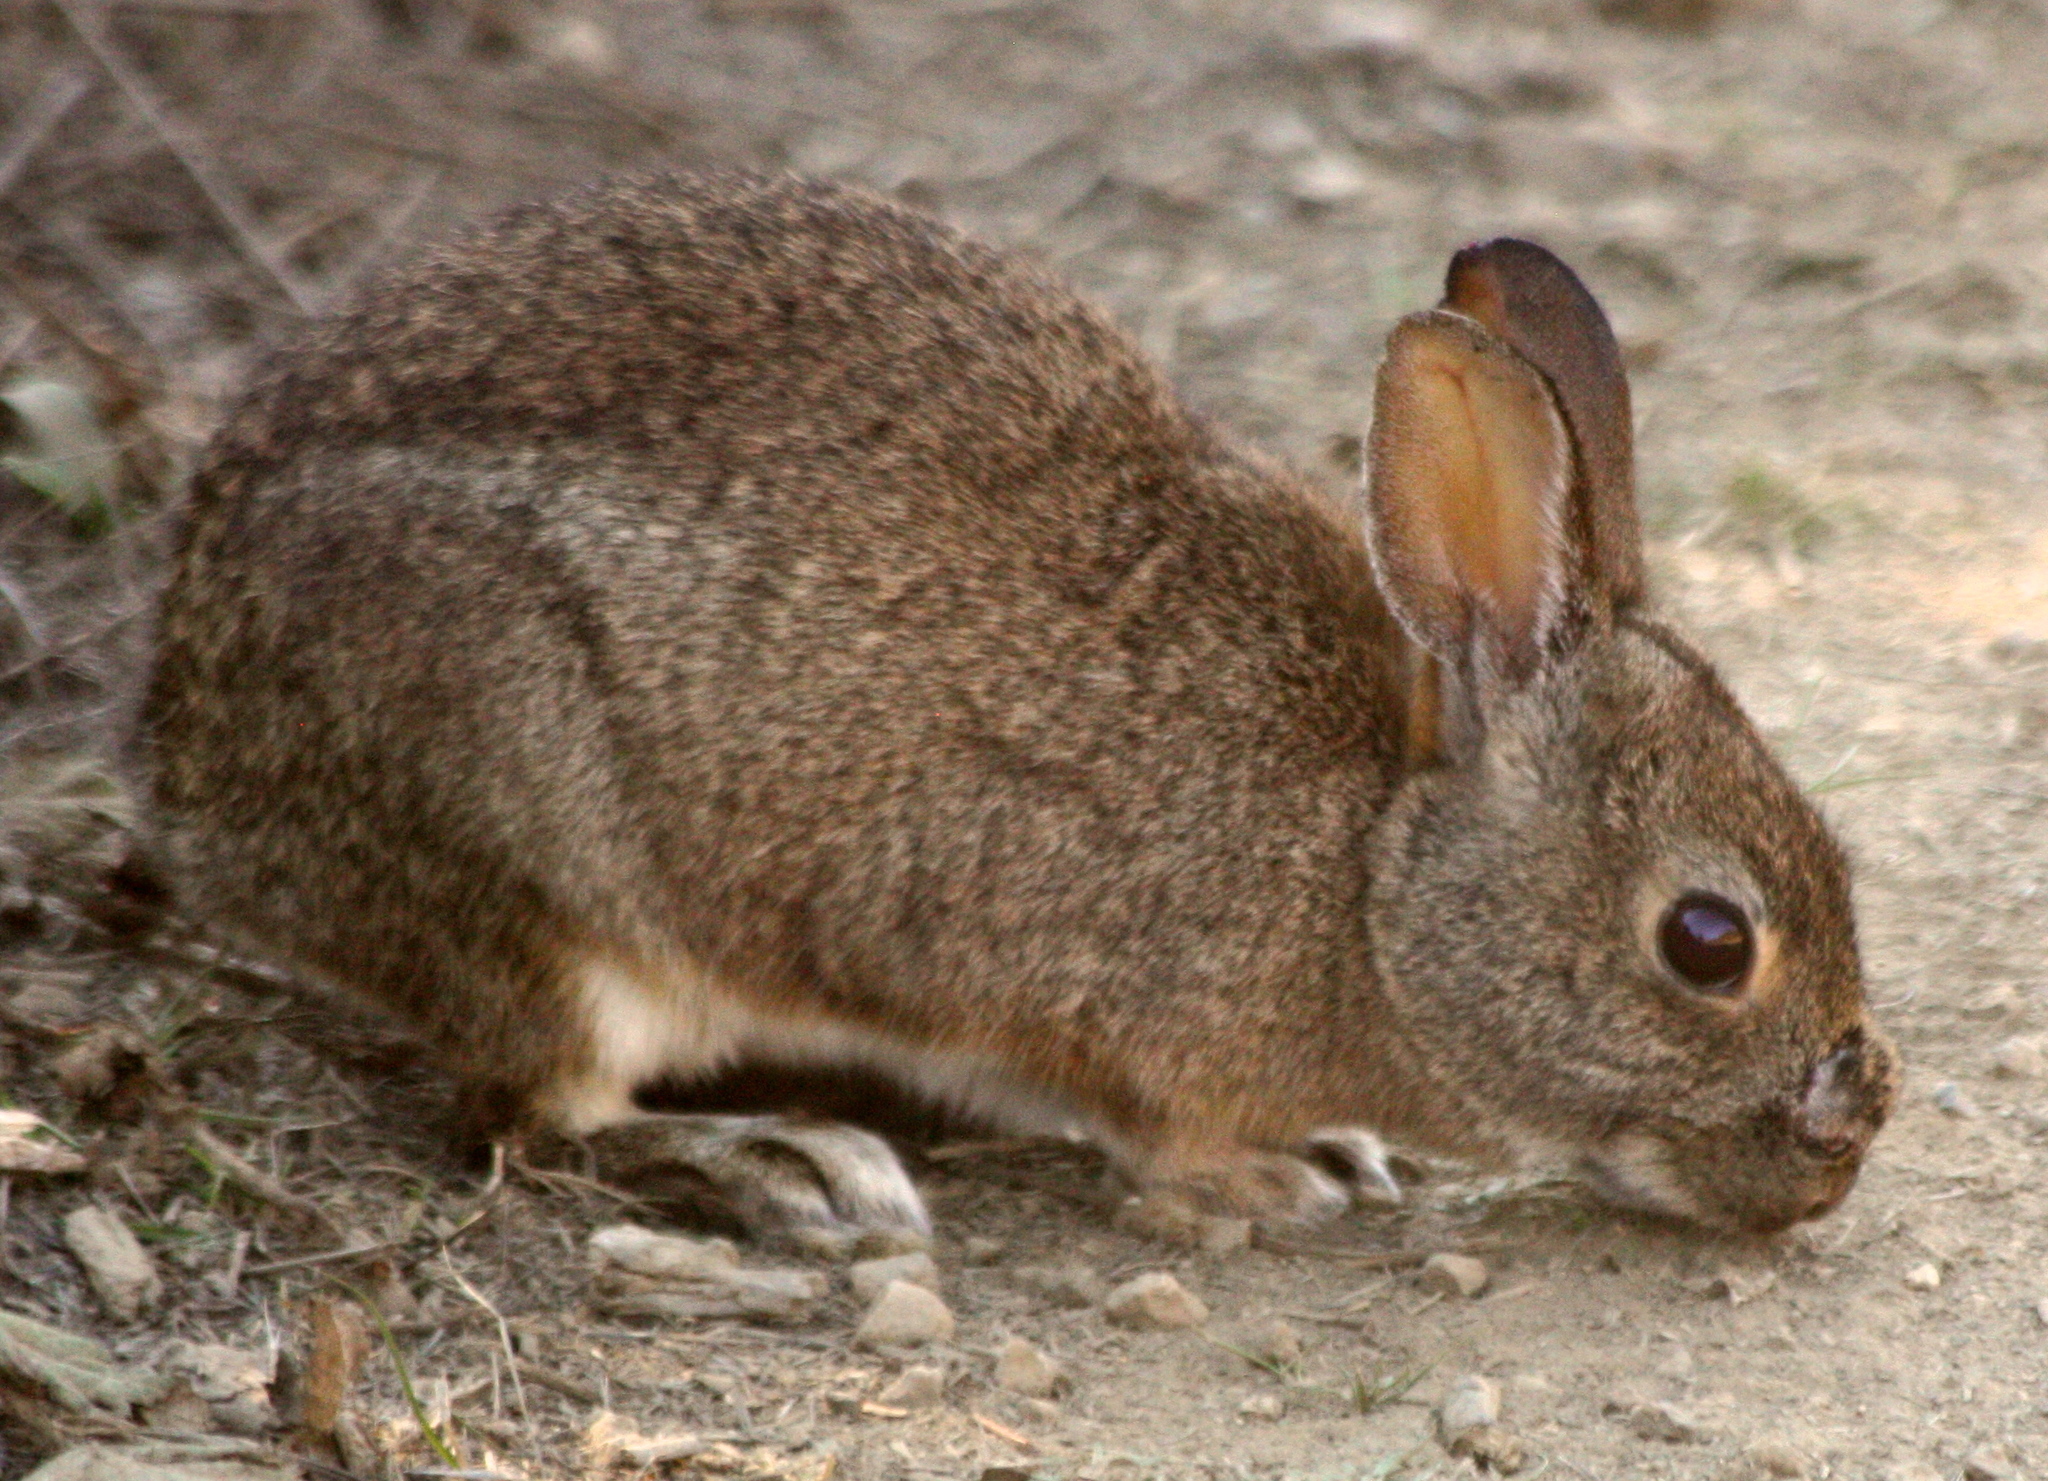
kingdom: Animalia
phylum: Chordata
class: Mammalia
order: Lagomorpha
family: Leporidae
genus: Sylvilagus
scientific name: Sylvilagus bachmani
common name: Brush rabbit
